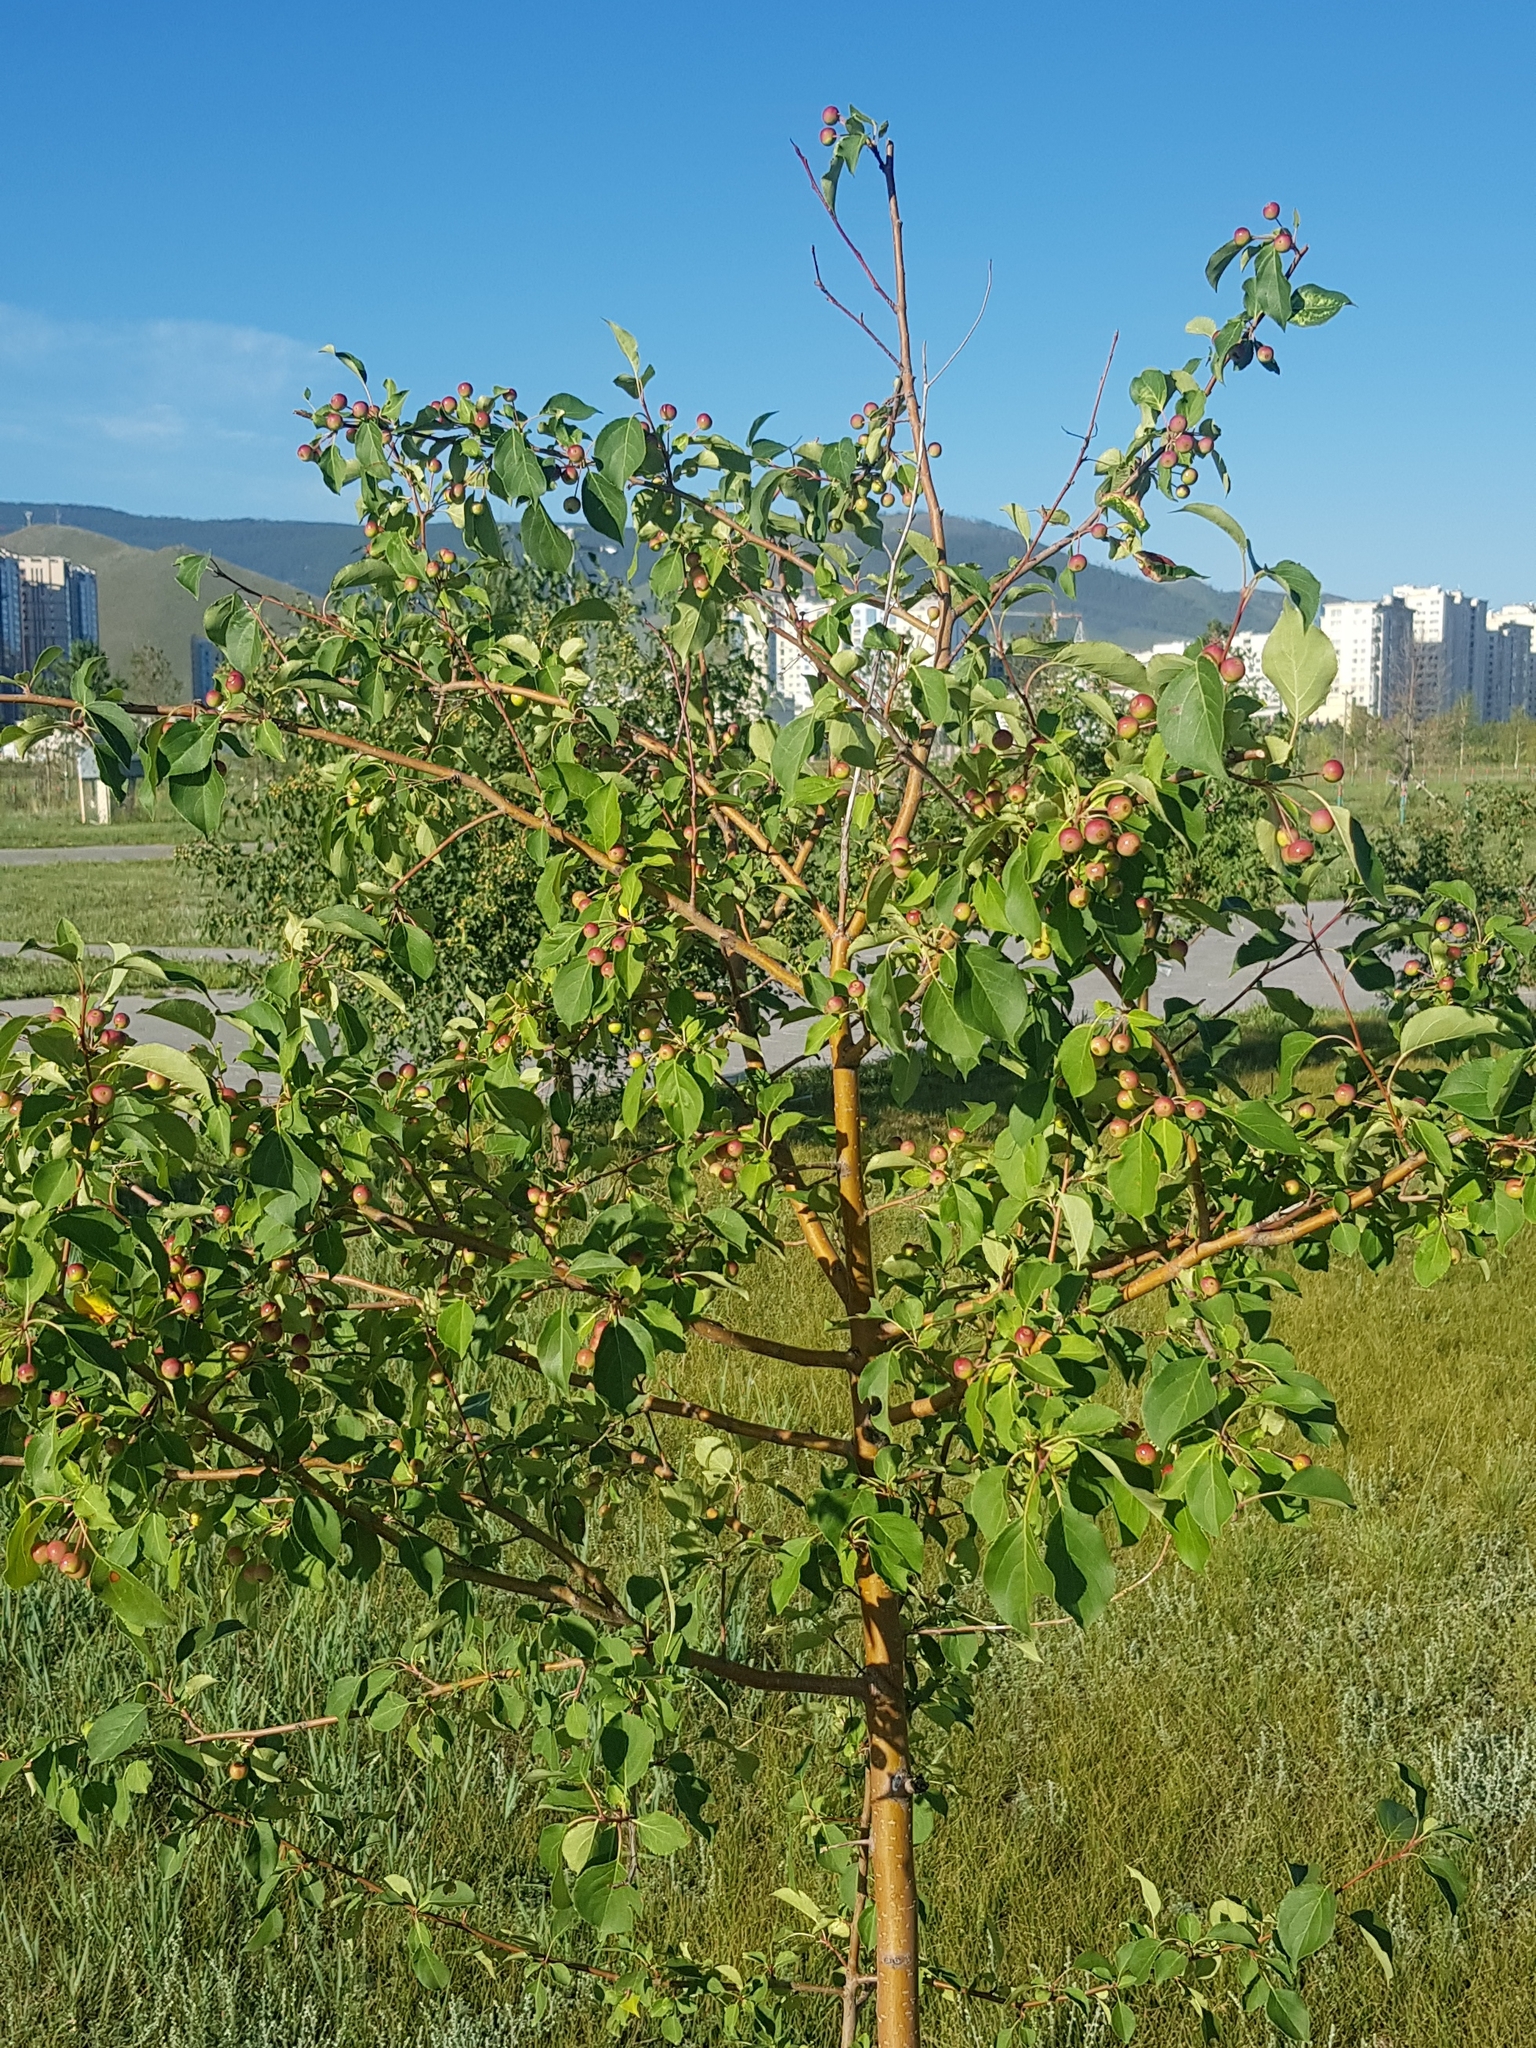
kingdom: Plantae
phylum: Tracheophyta
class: Magnoliopsida
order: Rosales
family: Rosaceae
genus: Malus
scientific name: Malus baccata
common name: Siberian crab
